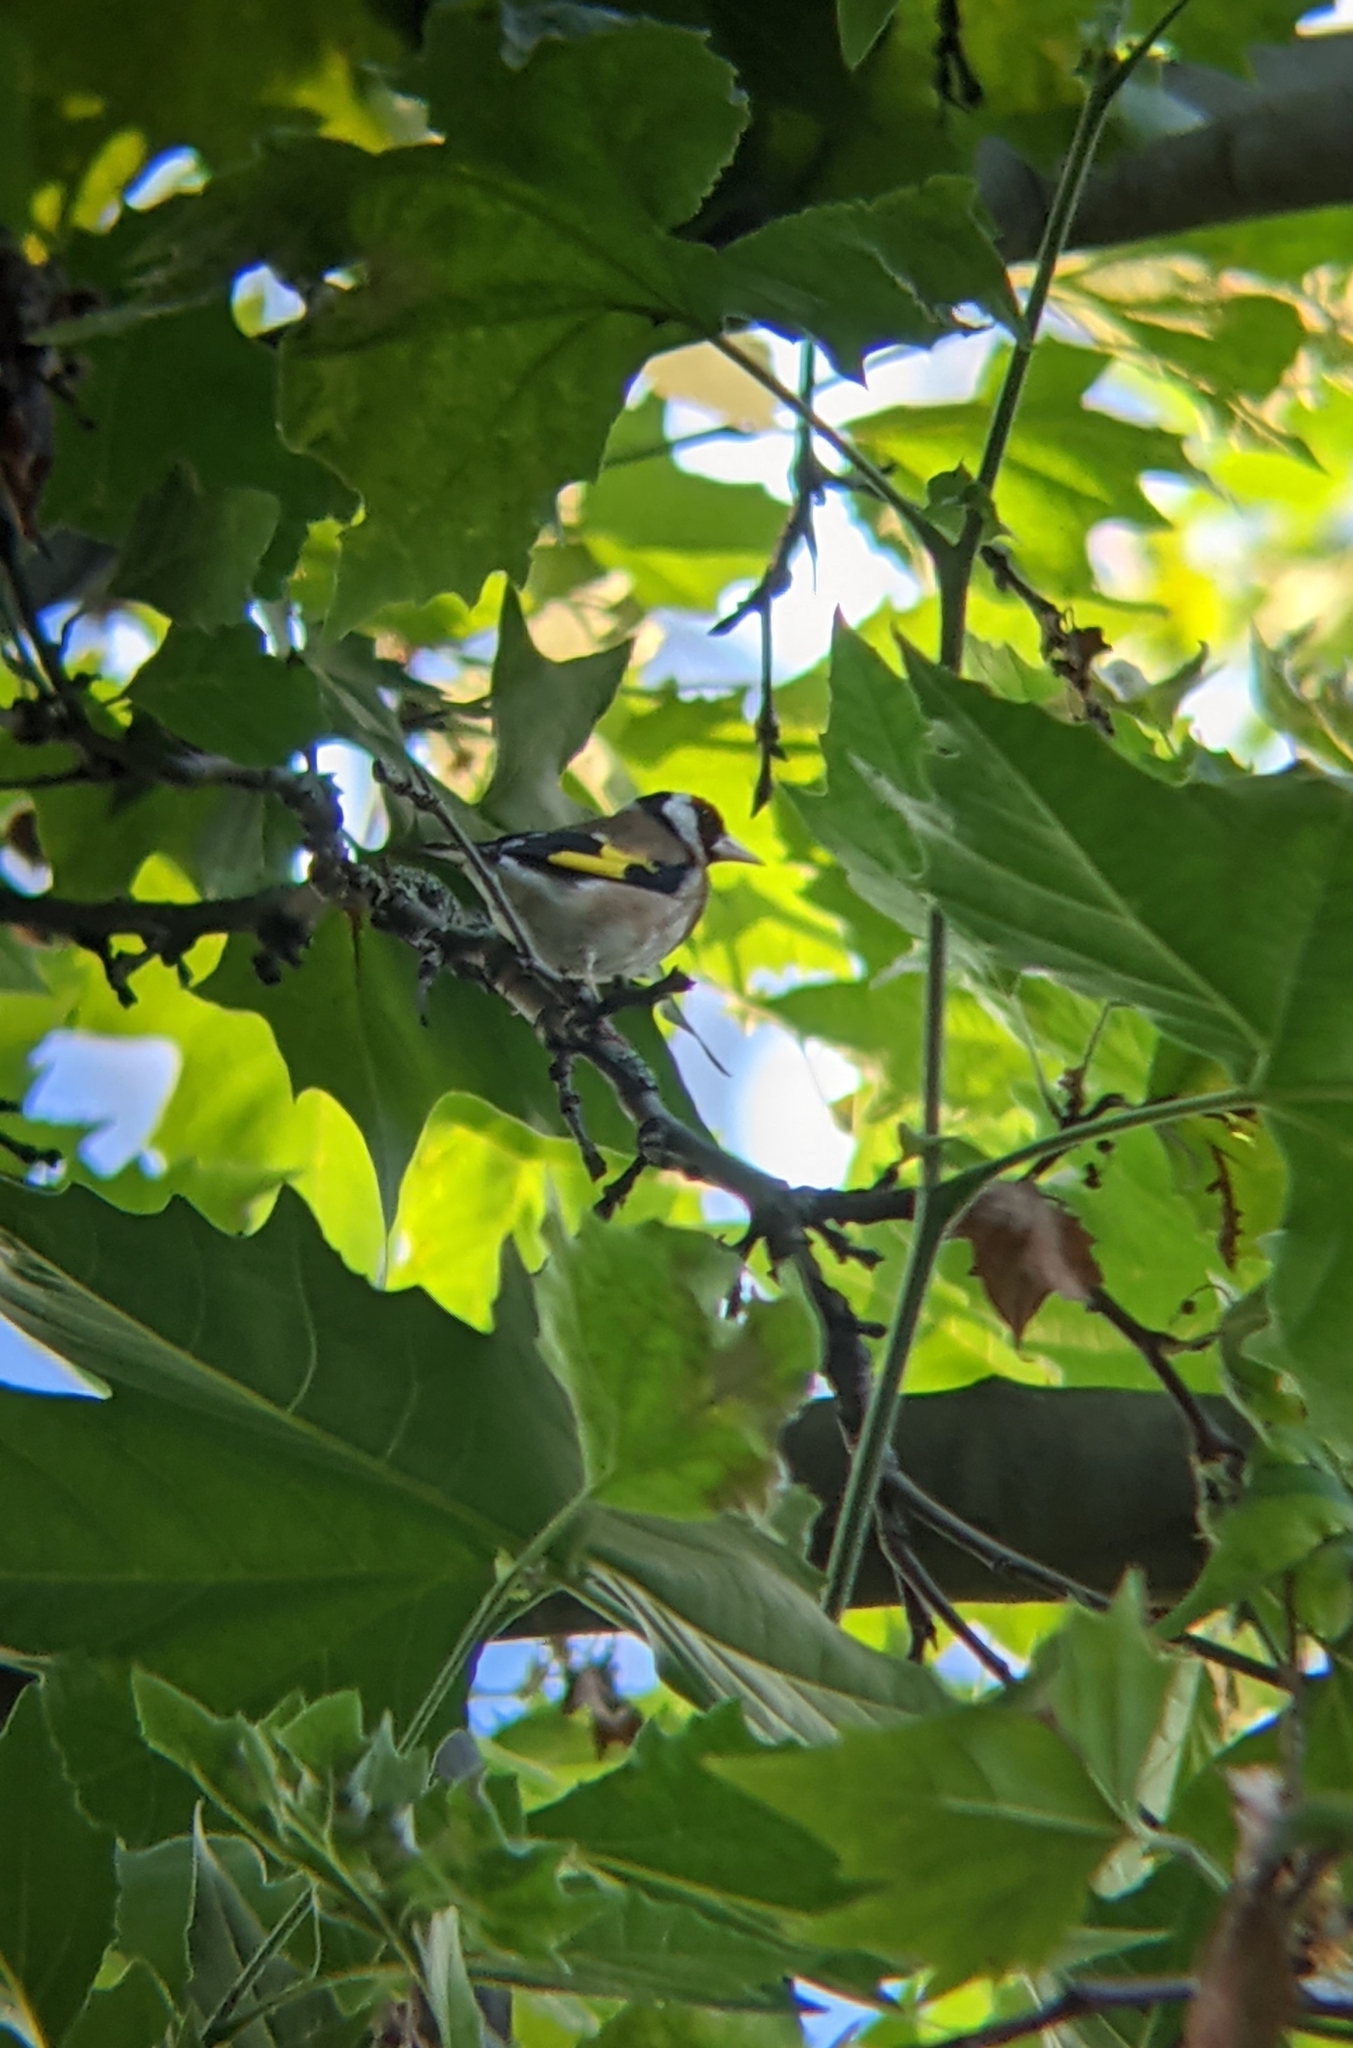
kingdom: Animalia
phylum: Chordata
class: Aves
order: Passeriformes
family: Fringillidae
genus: Carduelis
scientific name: Carduelis carduelis
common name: European goldfinch
